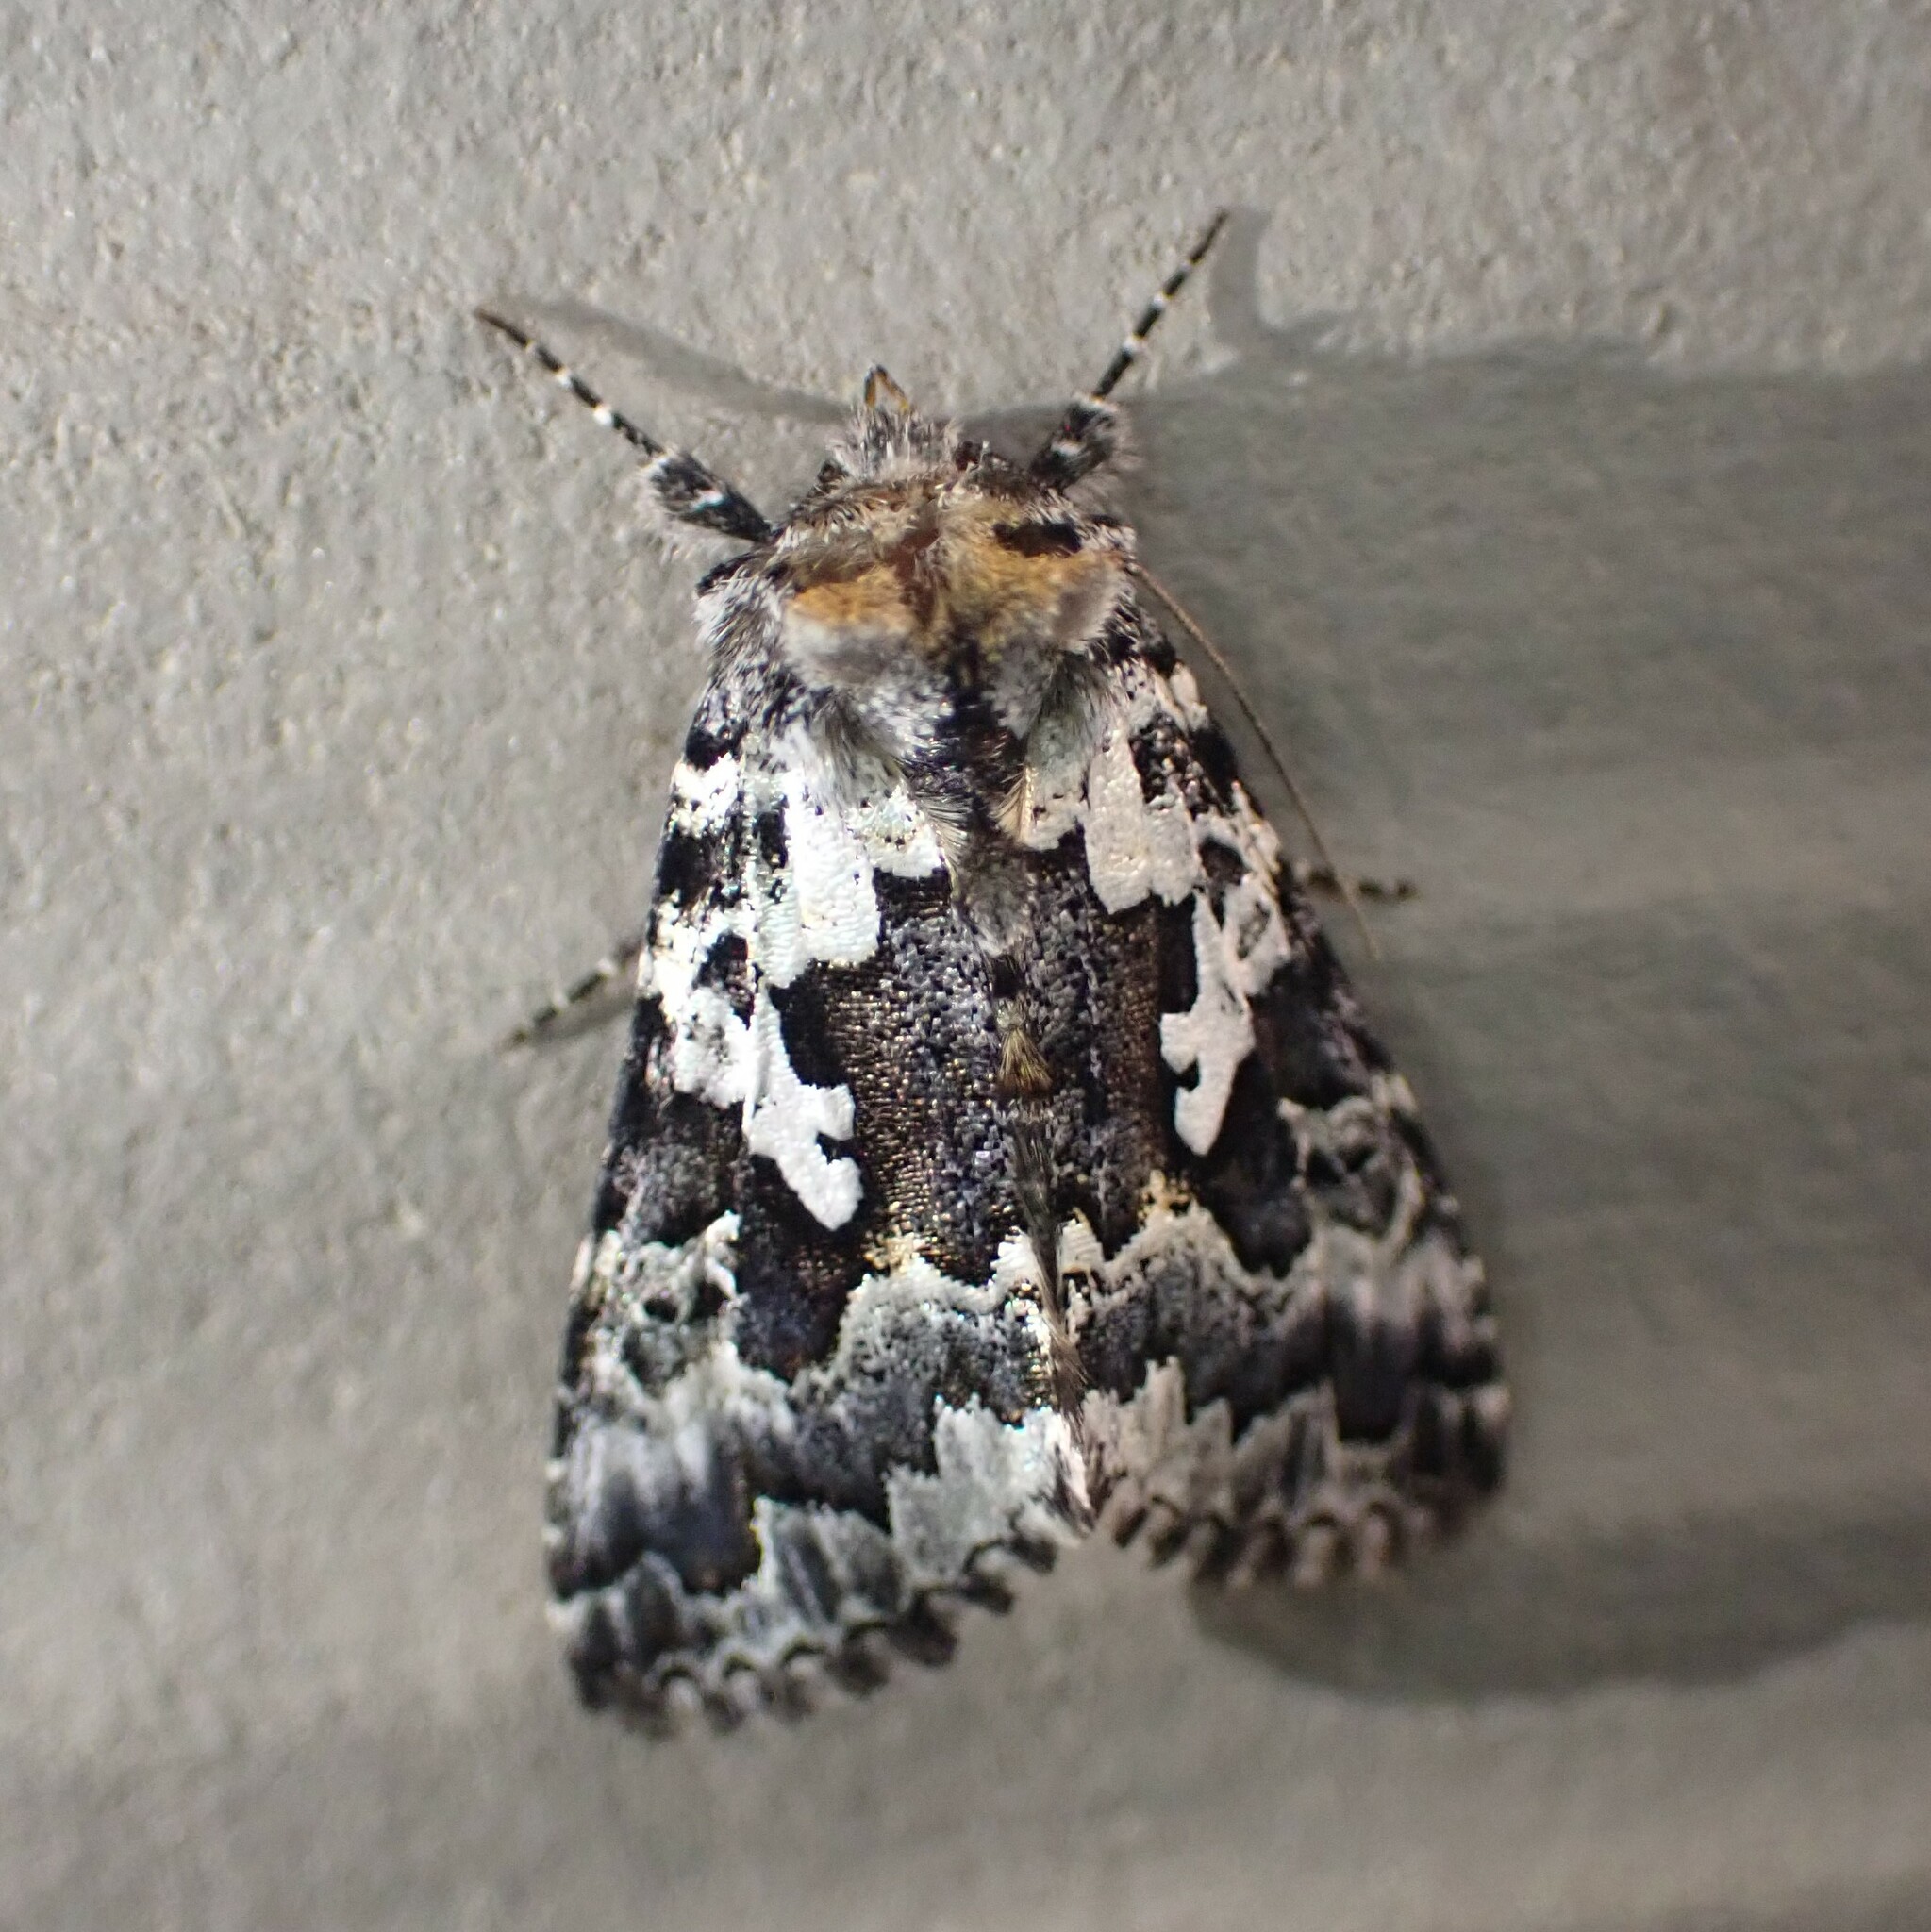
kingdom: Animalia
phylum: Arthropoda
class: Insecta
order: Lepidoptera
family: Noctuidae
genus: Syngrapha
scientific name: Syngrapha rectangula
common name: Angulated cutworm
